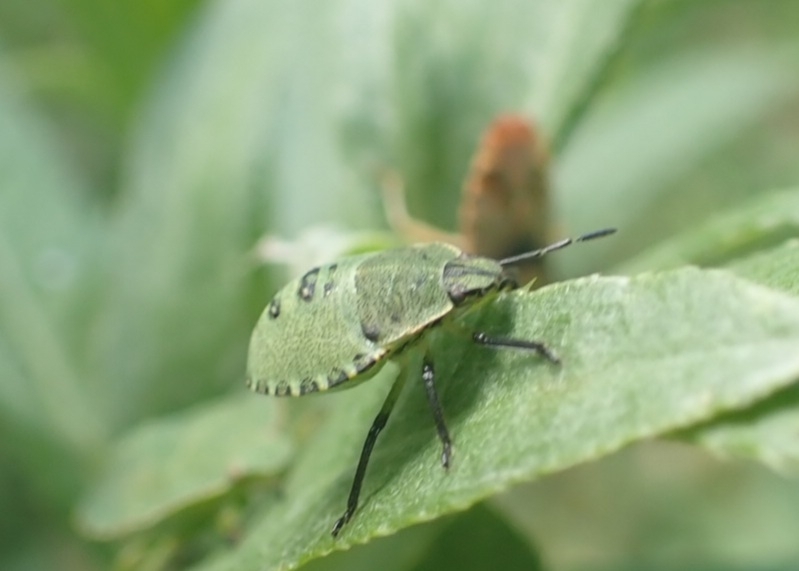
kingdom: Animalia
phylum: Arthropoda
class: Insecta
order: Hemiptera
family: Pentatomidae
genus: Palomena
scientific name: Palomena prasina
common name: Green shieldbug
